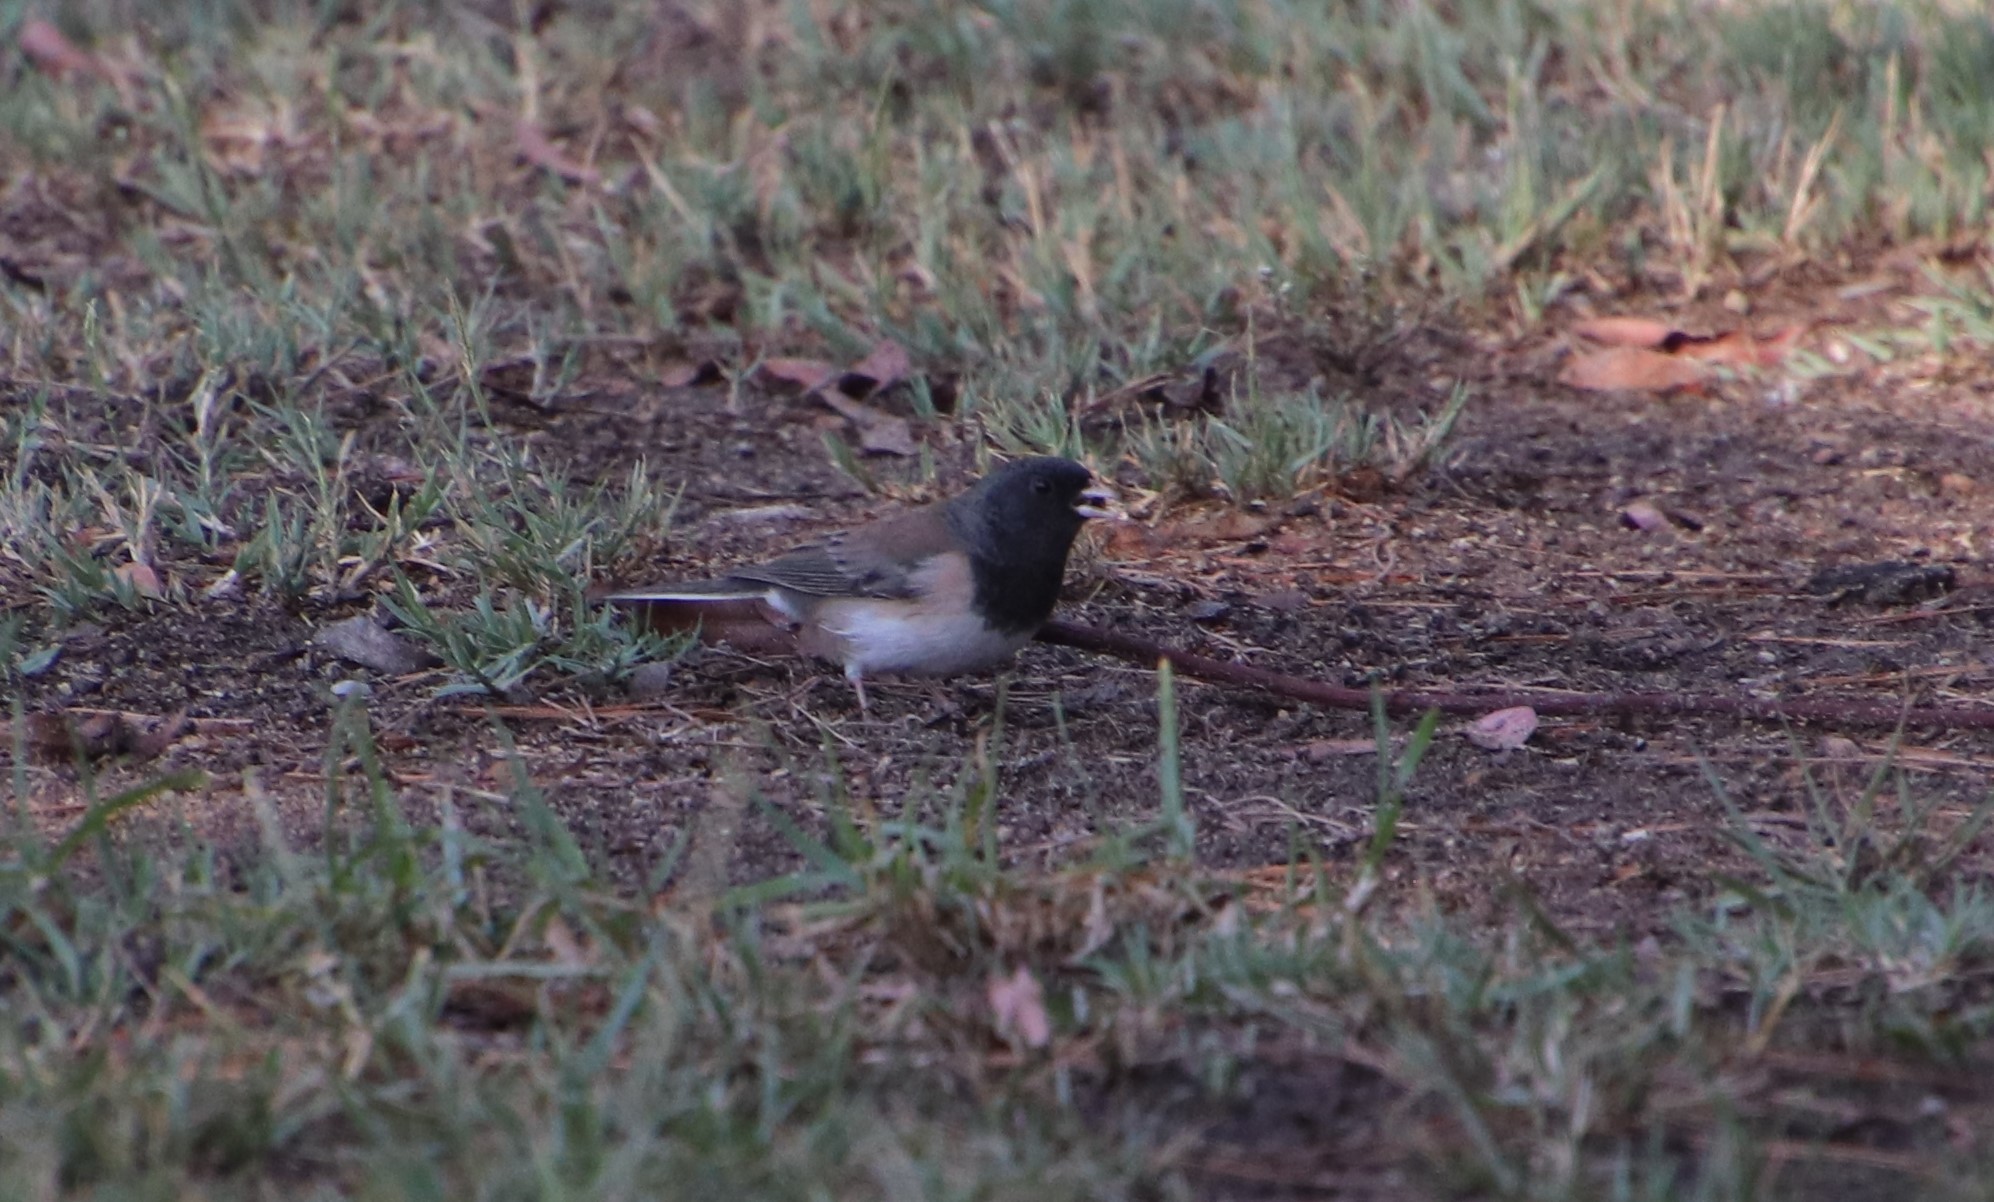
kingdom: Animalia
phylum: Chordata
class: Aves
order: Passeriformes
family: Passerellidae
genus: Junco
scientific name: Junco hyemalis
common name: Dark-eyed junco
